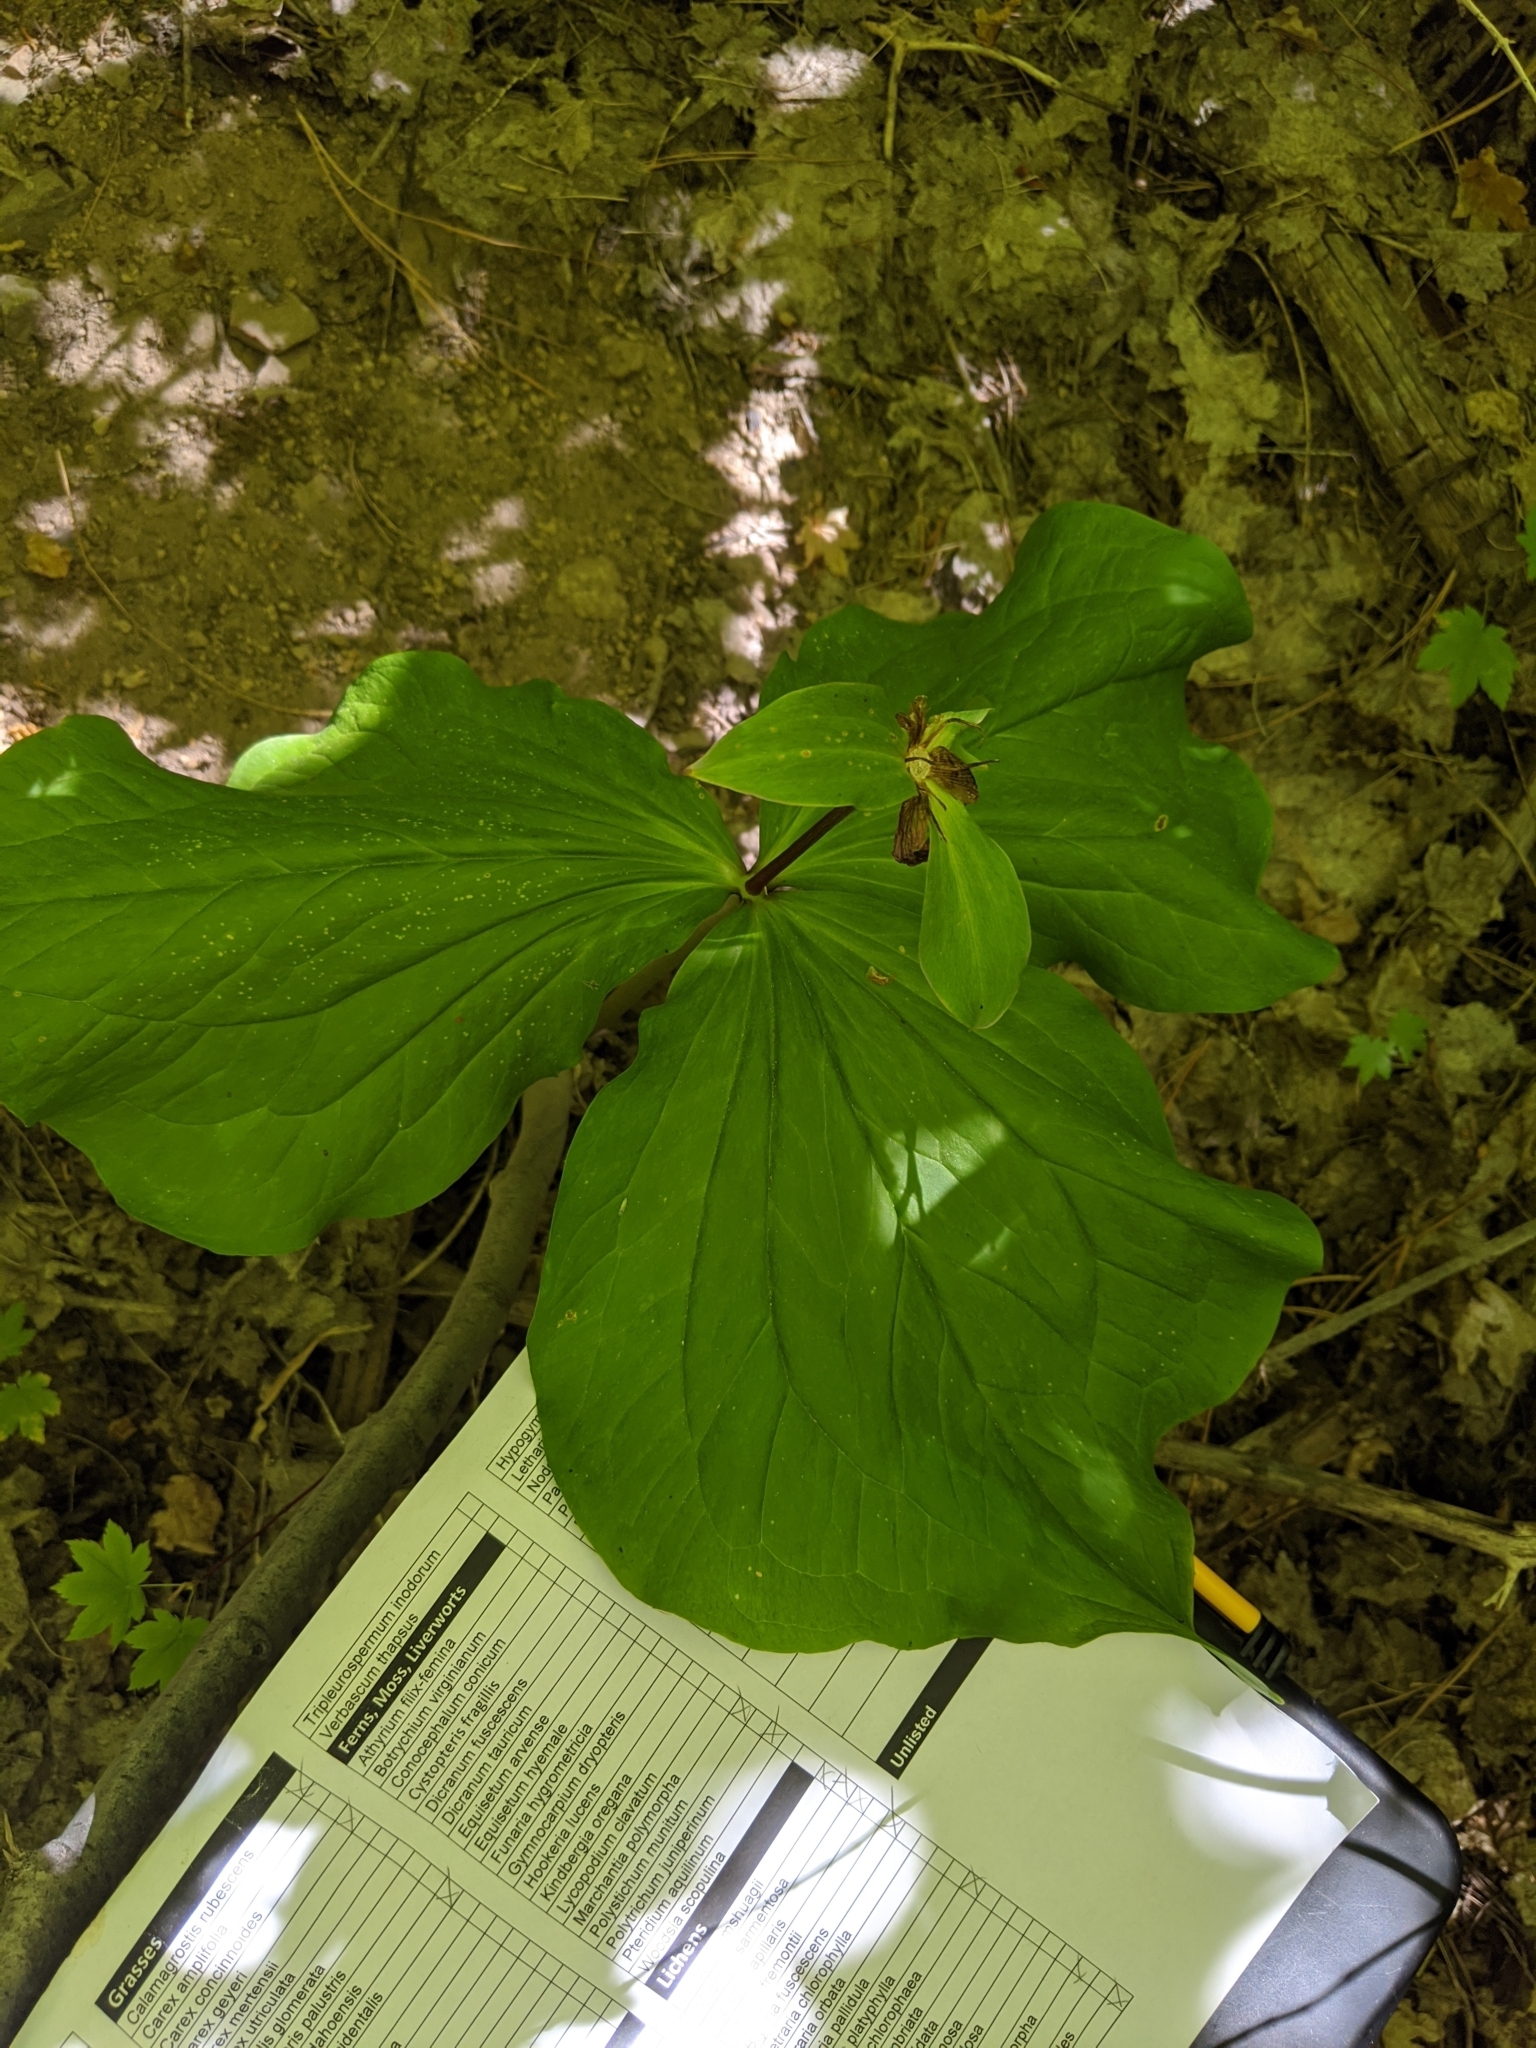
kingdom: Plantae
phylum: Tracheophyta
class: Liliopsida
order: Liliales
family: Melanthiaceae
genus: Trillium
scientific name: Trillium ovatum
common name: Pacific trillium
